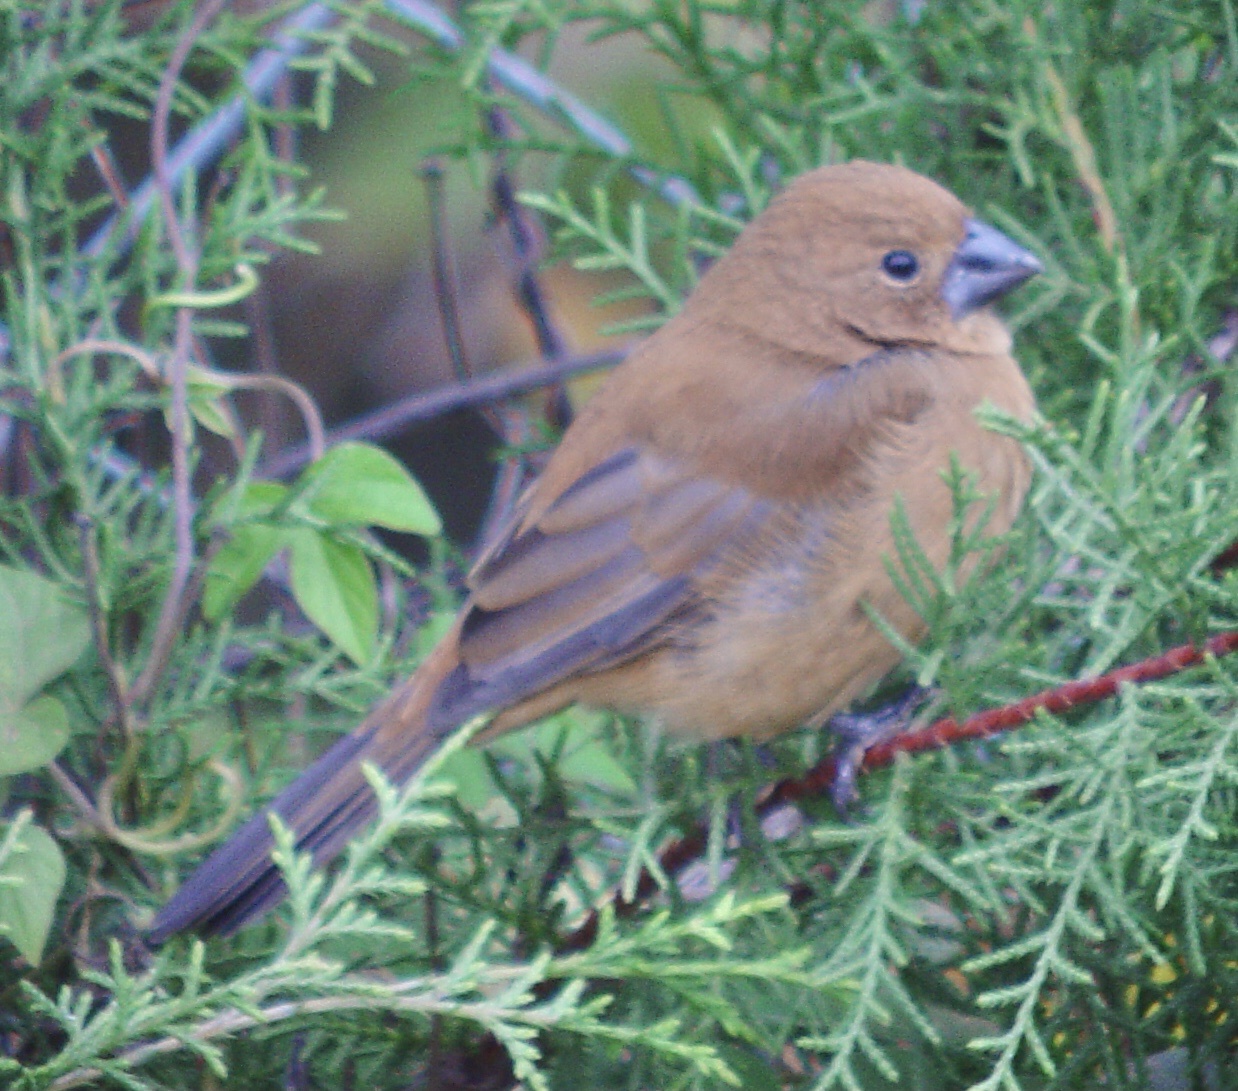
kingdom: Animalia
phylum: Chordata
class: Aves
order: Passeriformes
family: Cardinalidae
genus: Cyanoloxia
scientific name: Cyanoloxia brissonii
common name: Ultramarine grosbeak
